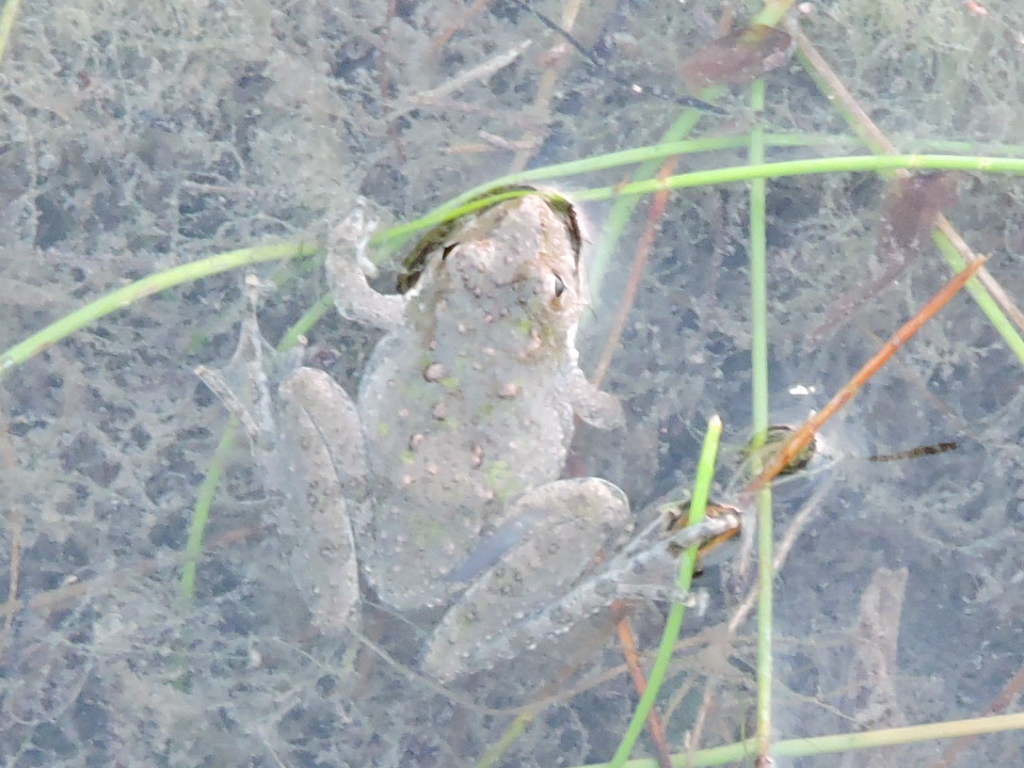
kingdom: Animalia
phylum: Chordata
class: Amphibia
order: Anura
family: Hylidae
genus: Acris
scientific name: Acris blanchardi
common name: Blanchard's cricket frog
